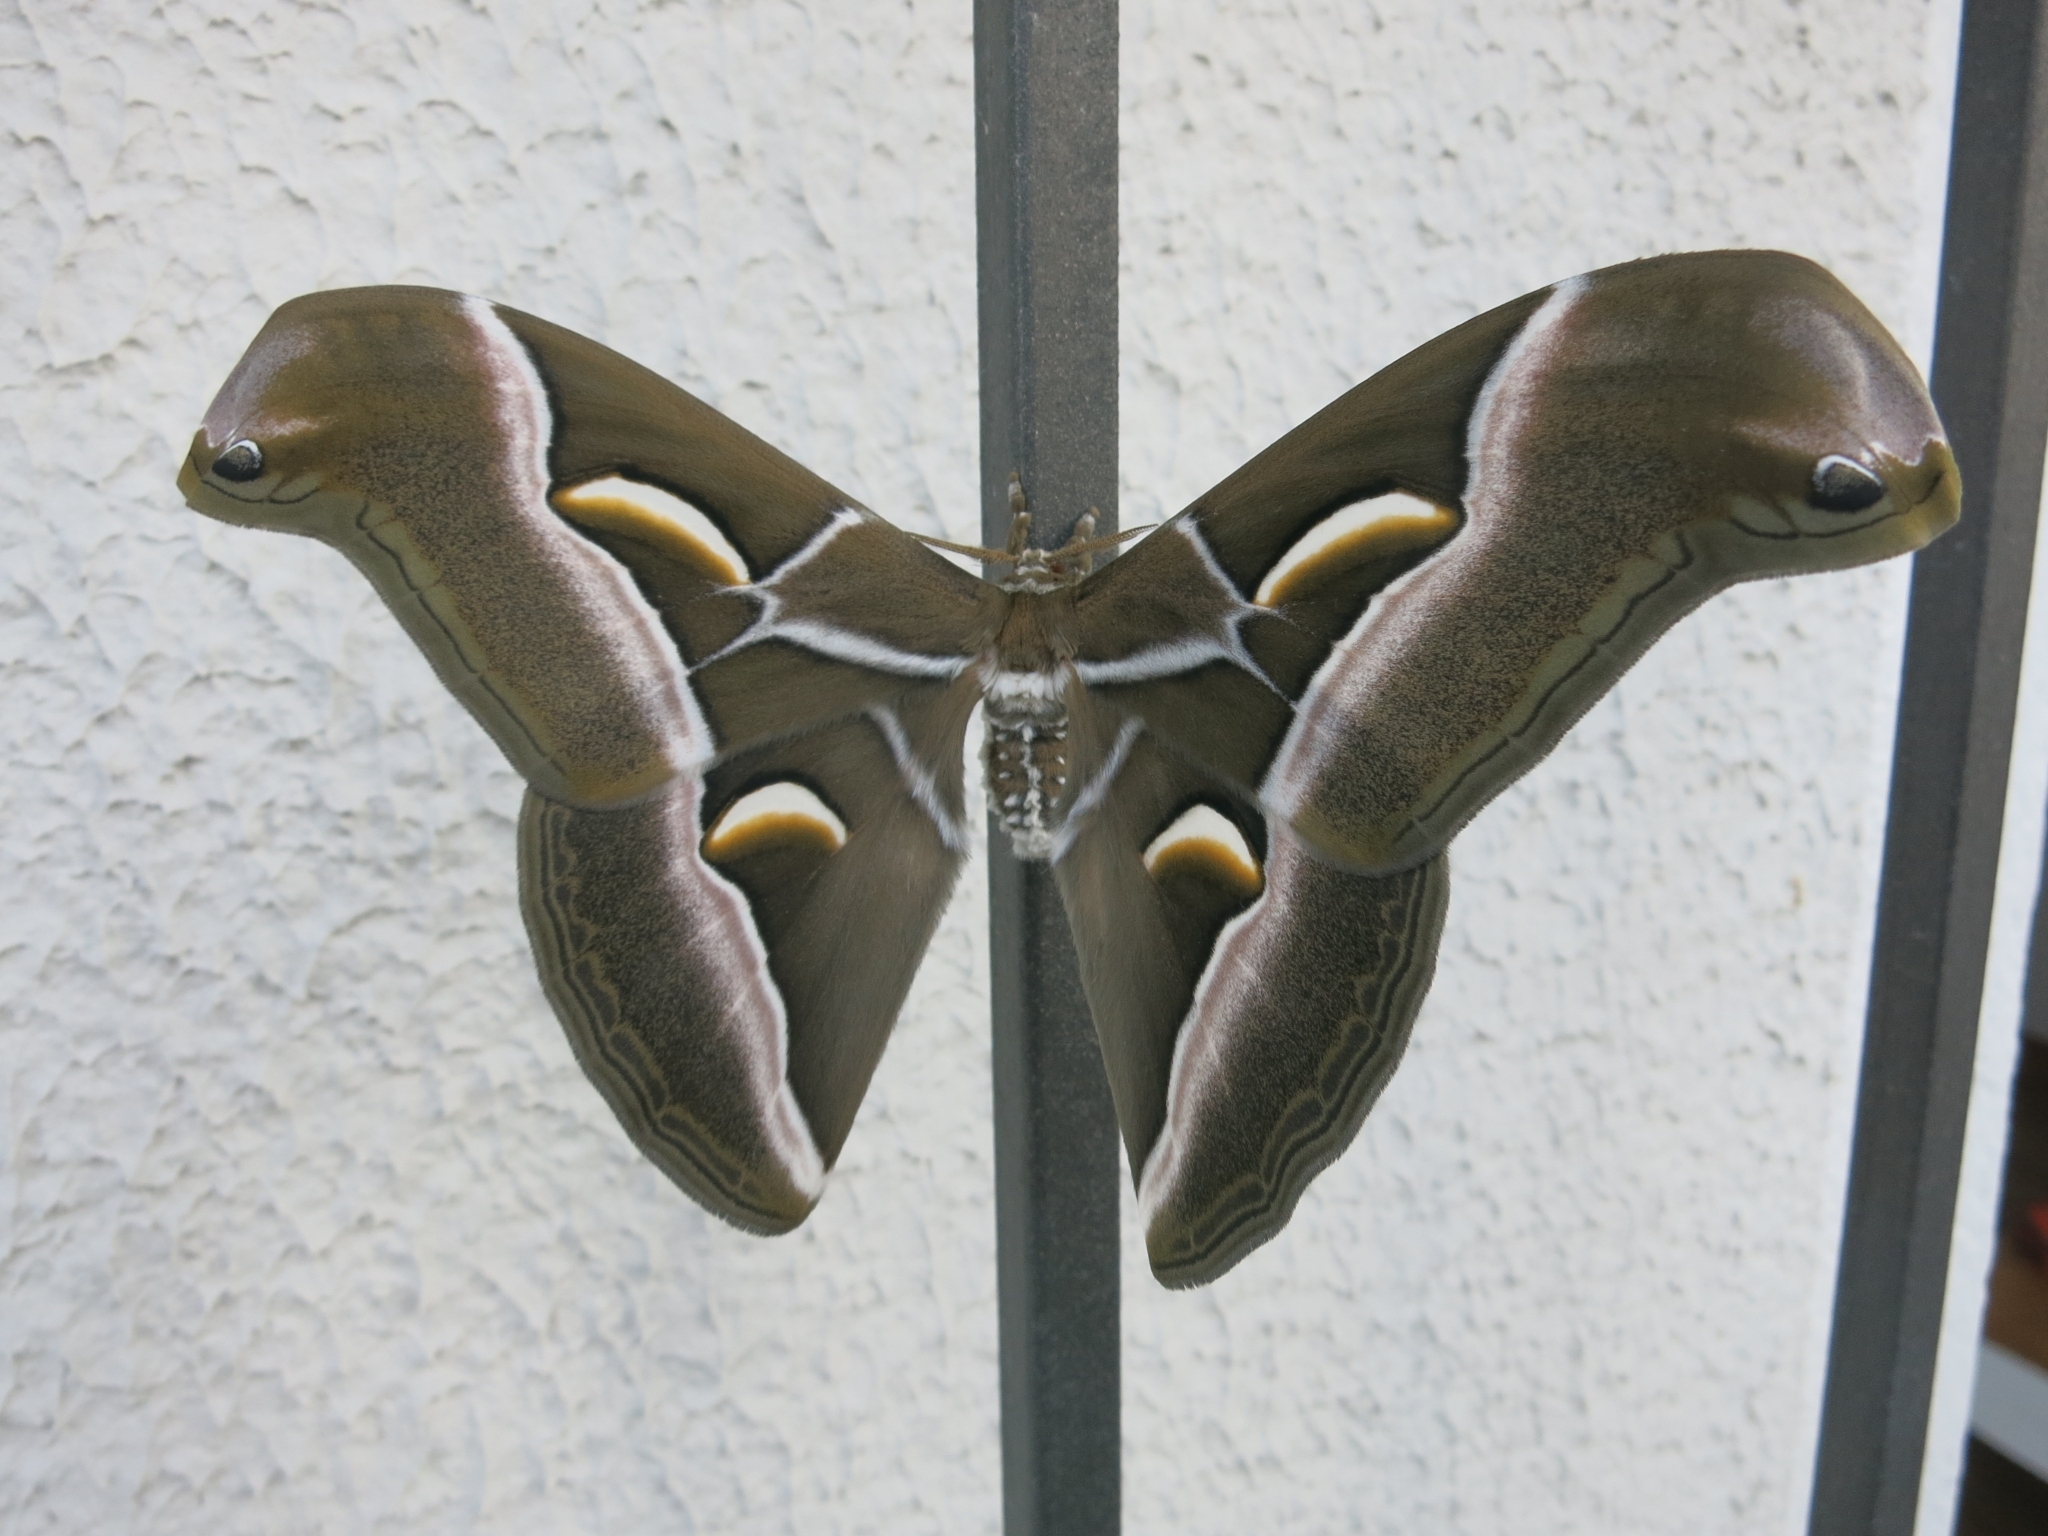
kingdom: Animalia
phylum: Arthropoda
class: Insecta
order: Lepidoptera
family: Saturniidae
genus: Samia
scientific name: Samia cynthia
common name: Ailanthus silkmoth
